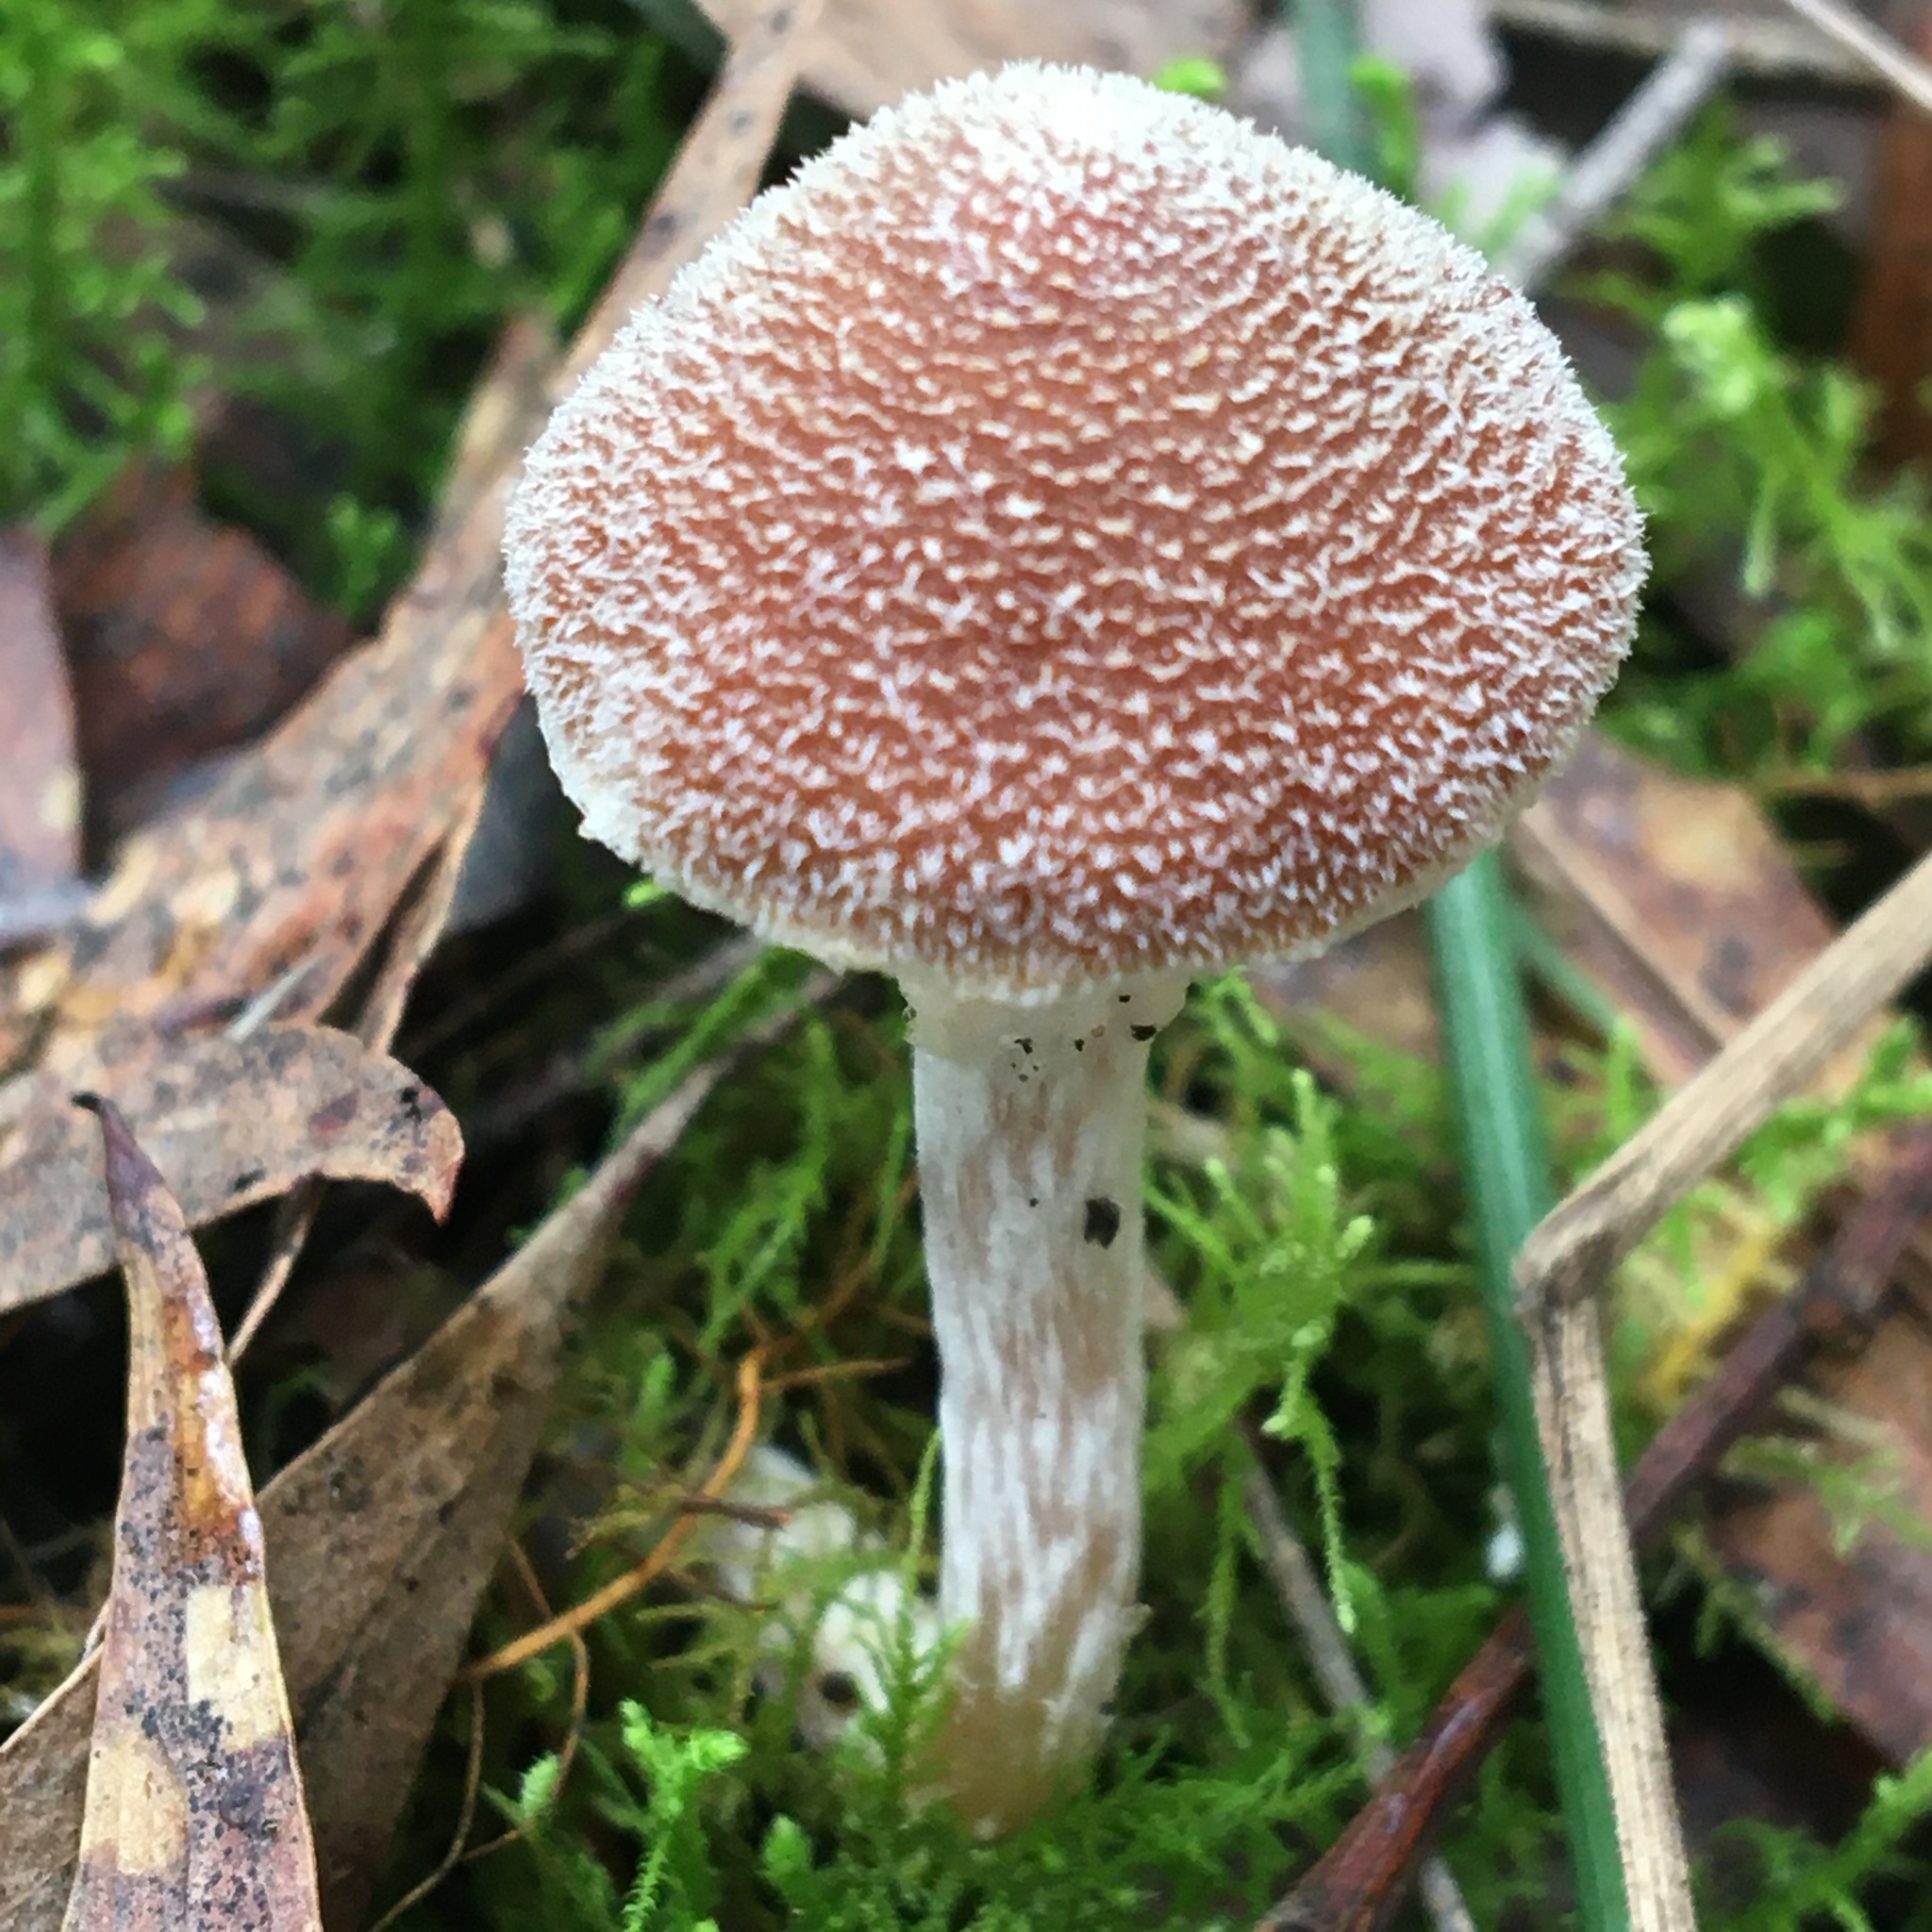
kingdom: Fungi
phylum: Basidiomycota
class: Agaricomycetes
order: Agaricales
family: Inocybaceae
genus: Inocybe
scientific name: Inocybe austrofibrillosa
